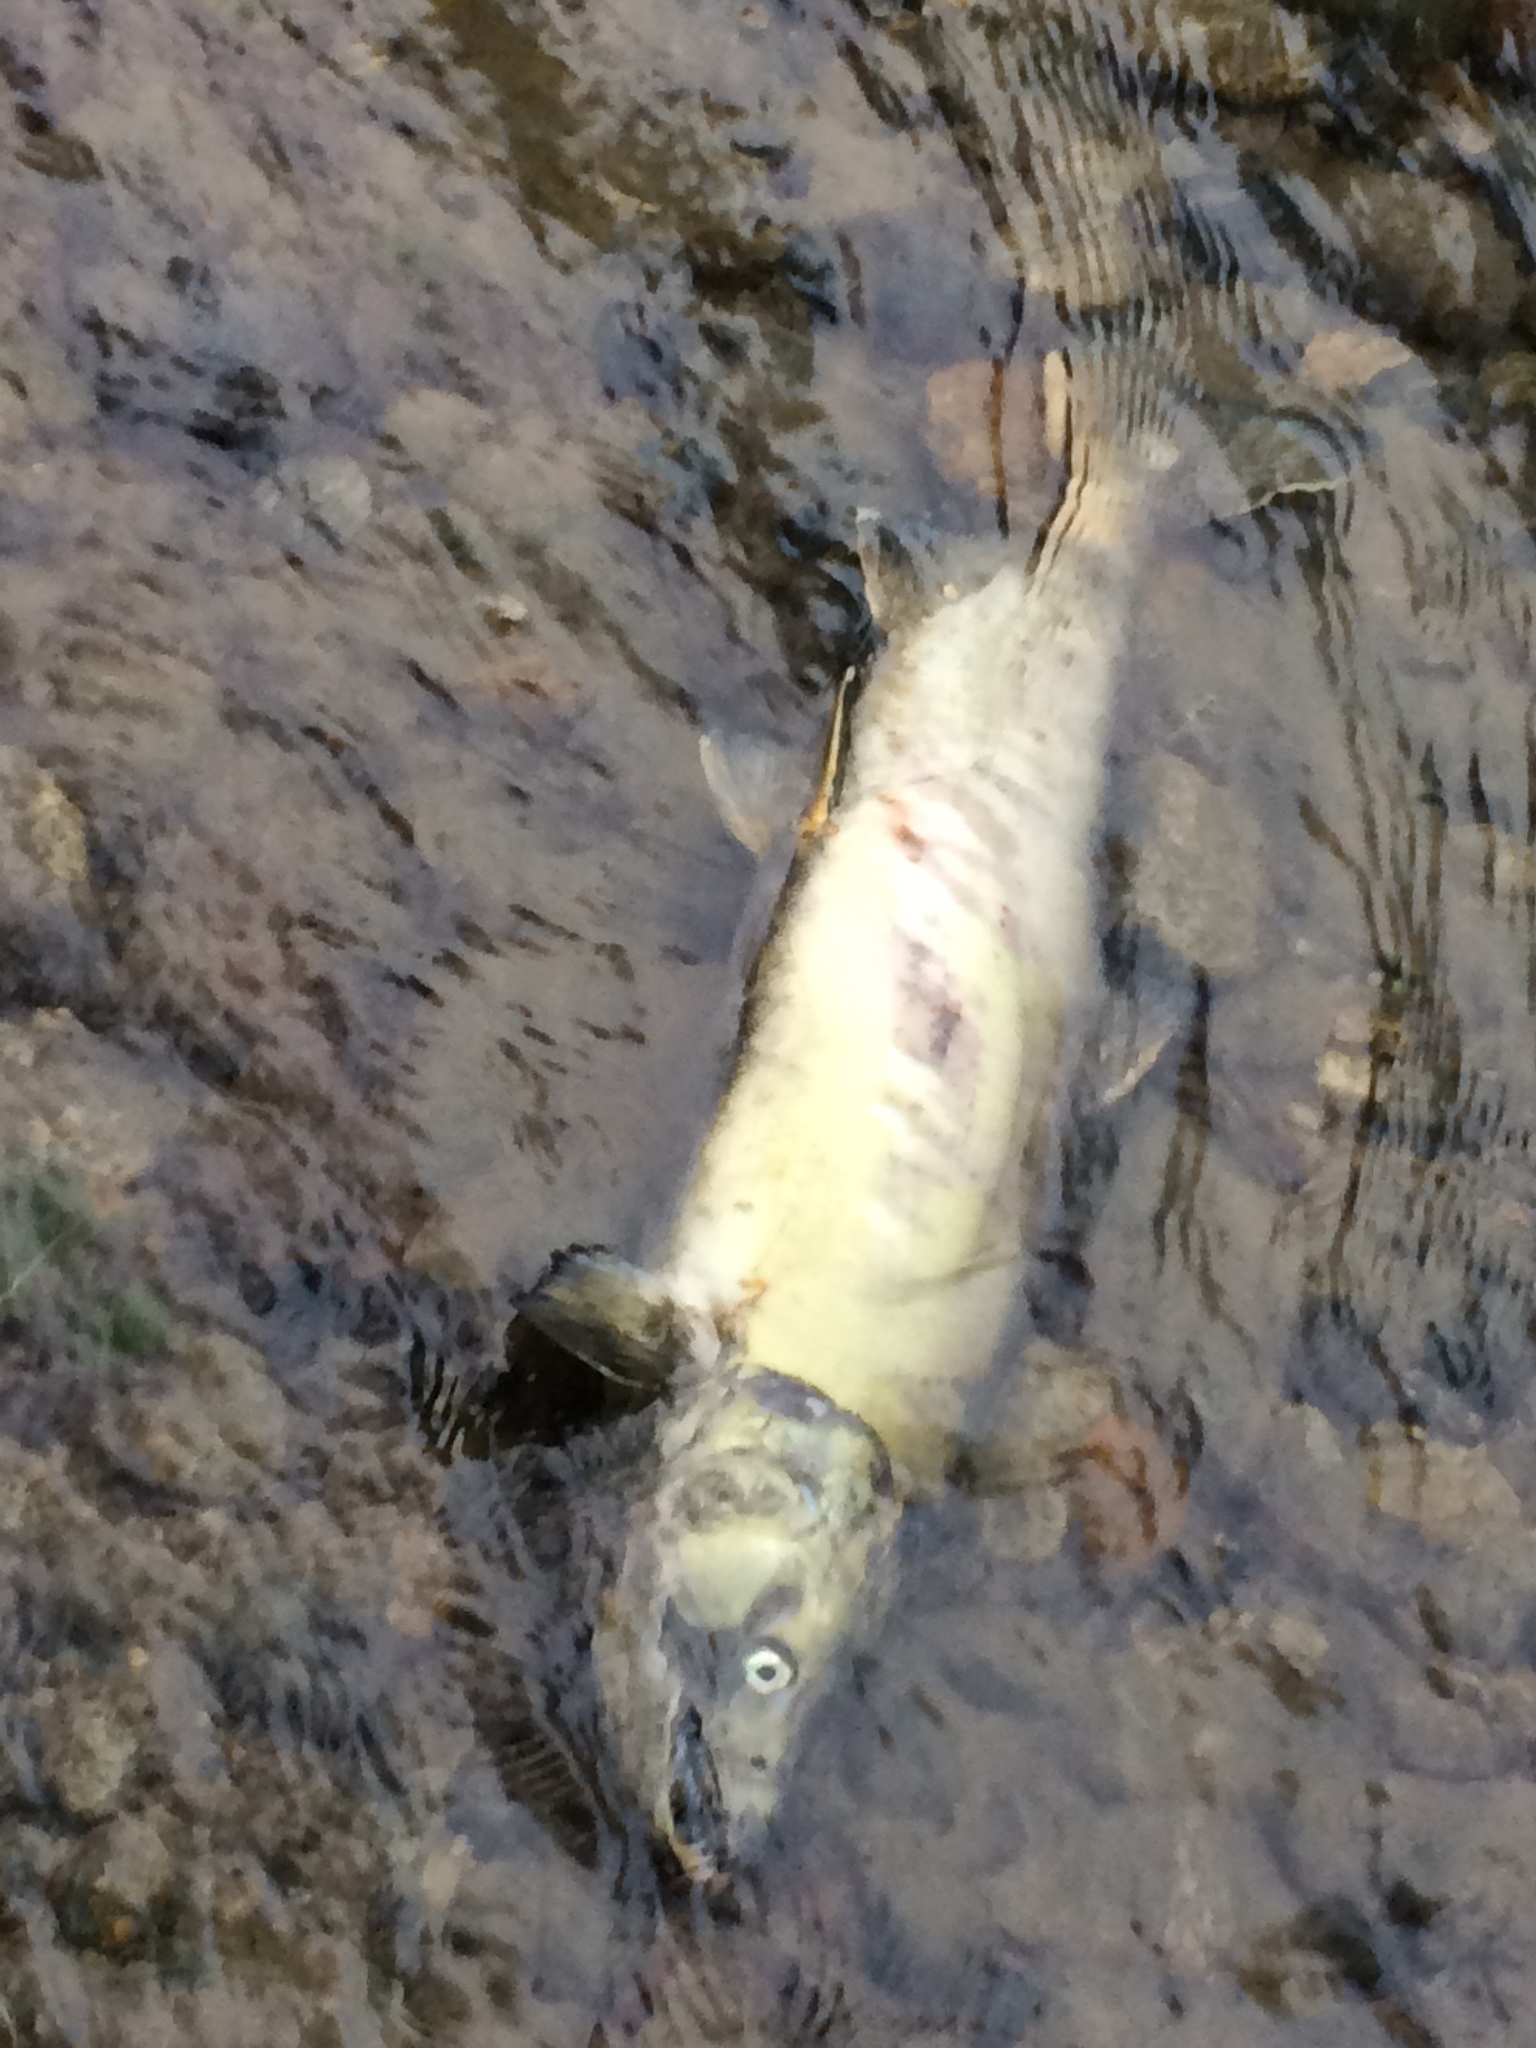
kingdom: Animalia
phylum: Chordata
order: Salmoniformes
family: Salmonidae
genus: Oncorhynchus
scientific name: Oncorhynchus keta
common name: Chum salmon
